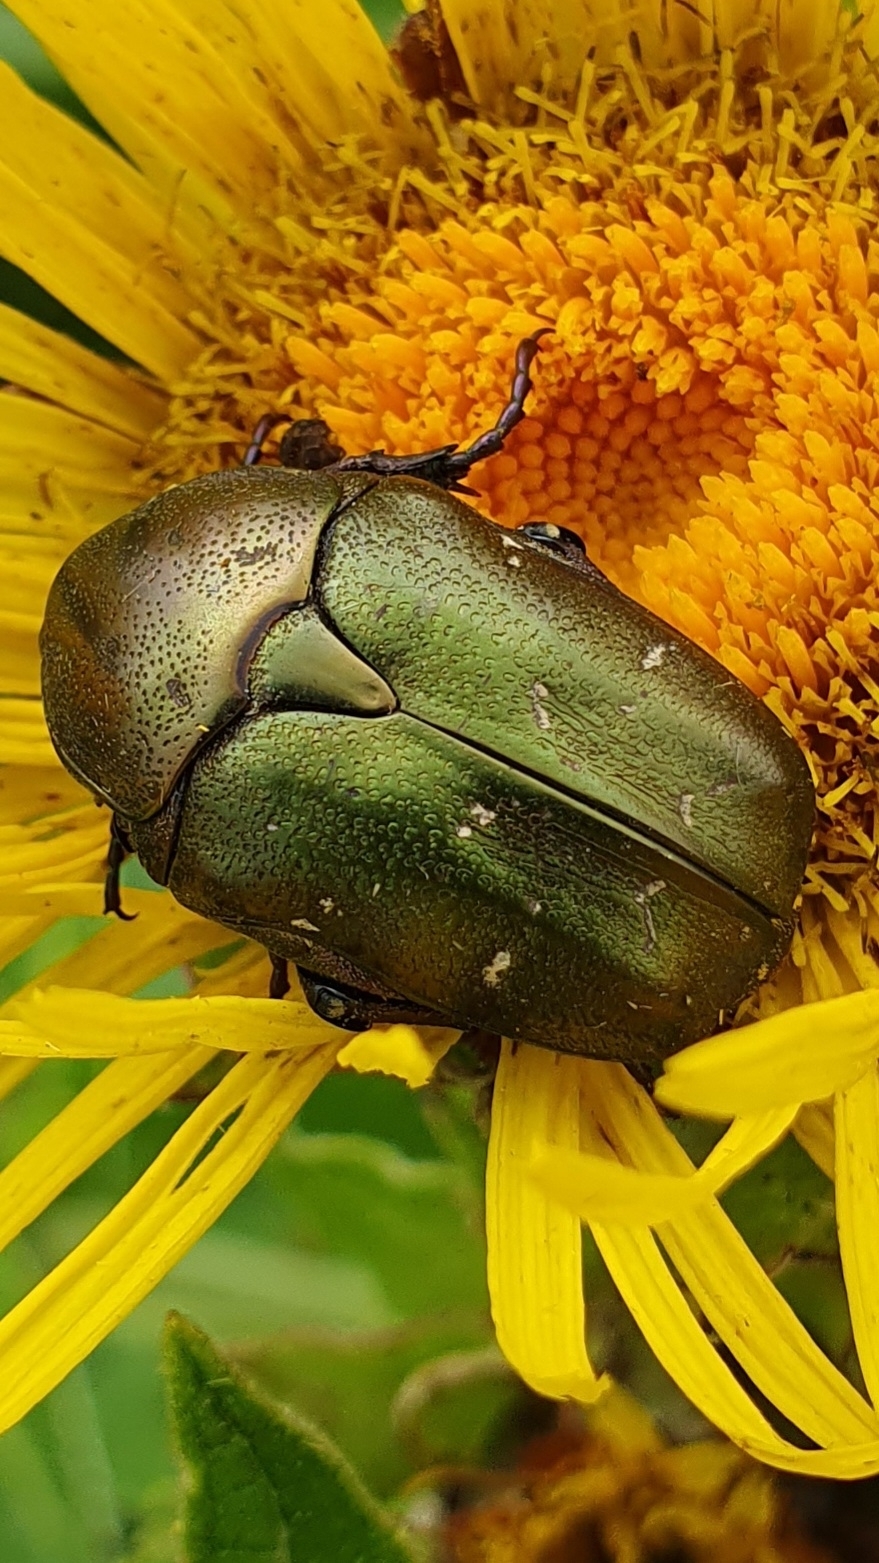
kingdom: Animalia
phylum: Arthropoda
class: Insecta
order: Coleoptera
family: Scarabaeidae
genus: Protaetia
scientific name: Protaetia cuprea
